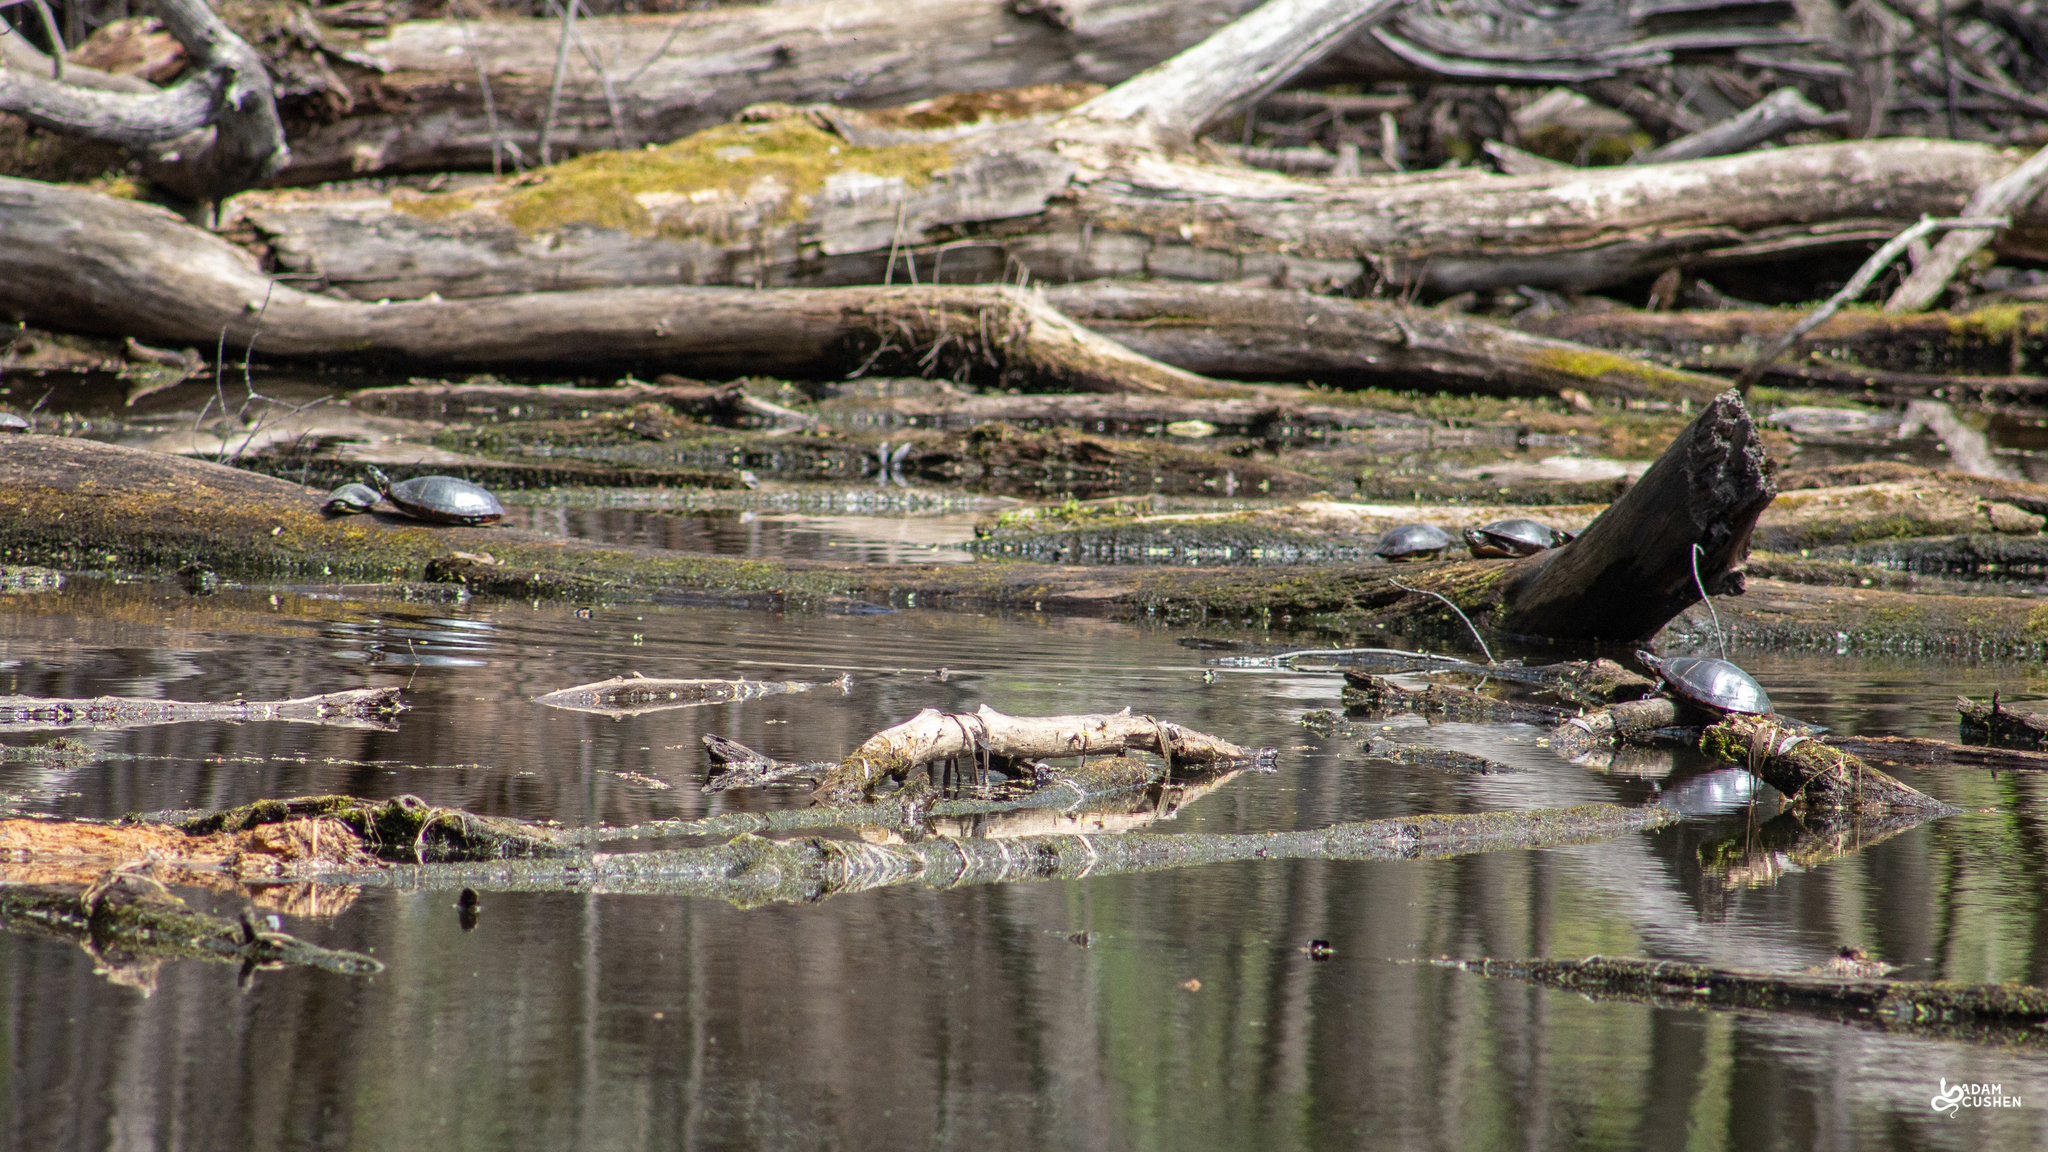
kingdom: Animalia
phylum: Chordata
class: Testudines
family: Emydidae
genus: Chrysemys
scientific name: Chrysemys picta
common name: Painted turtle
